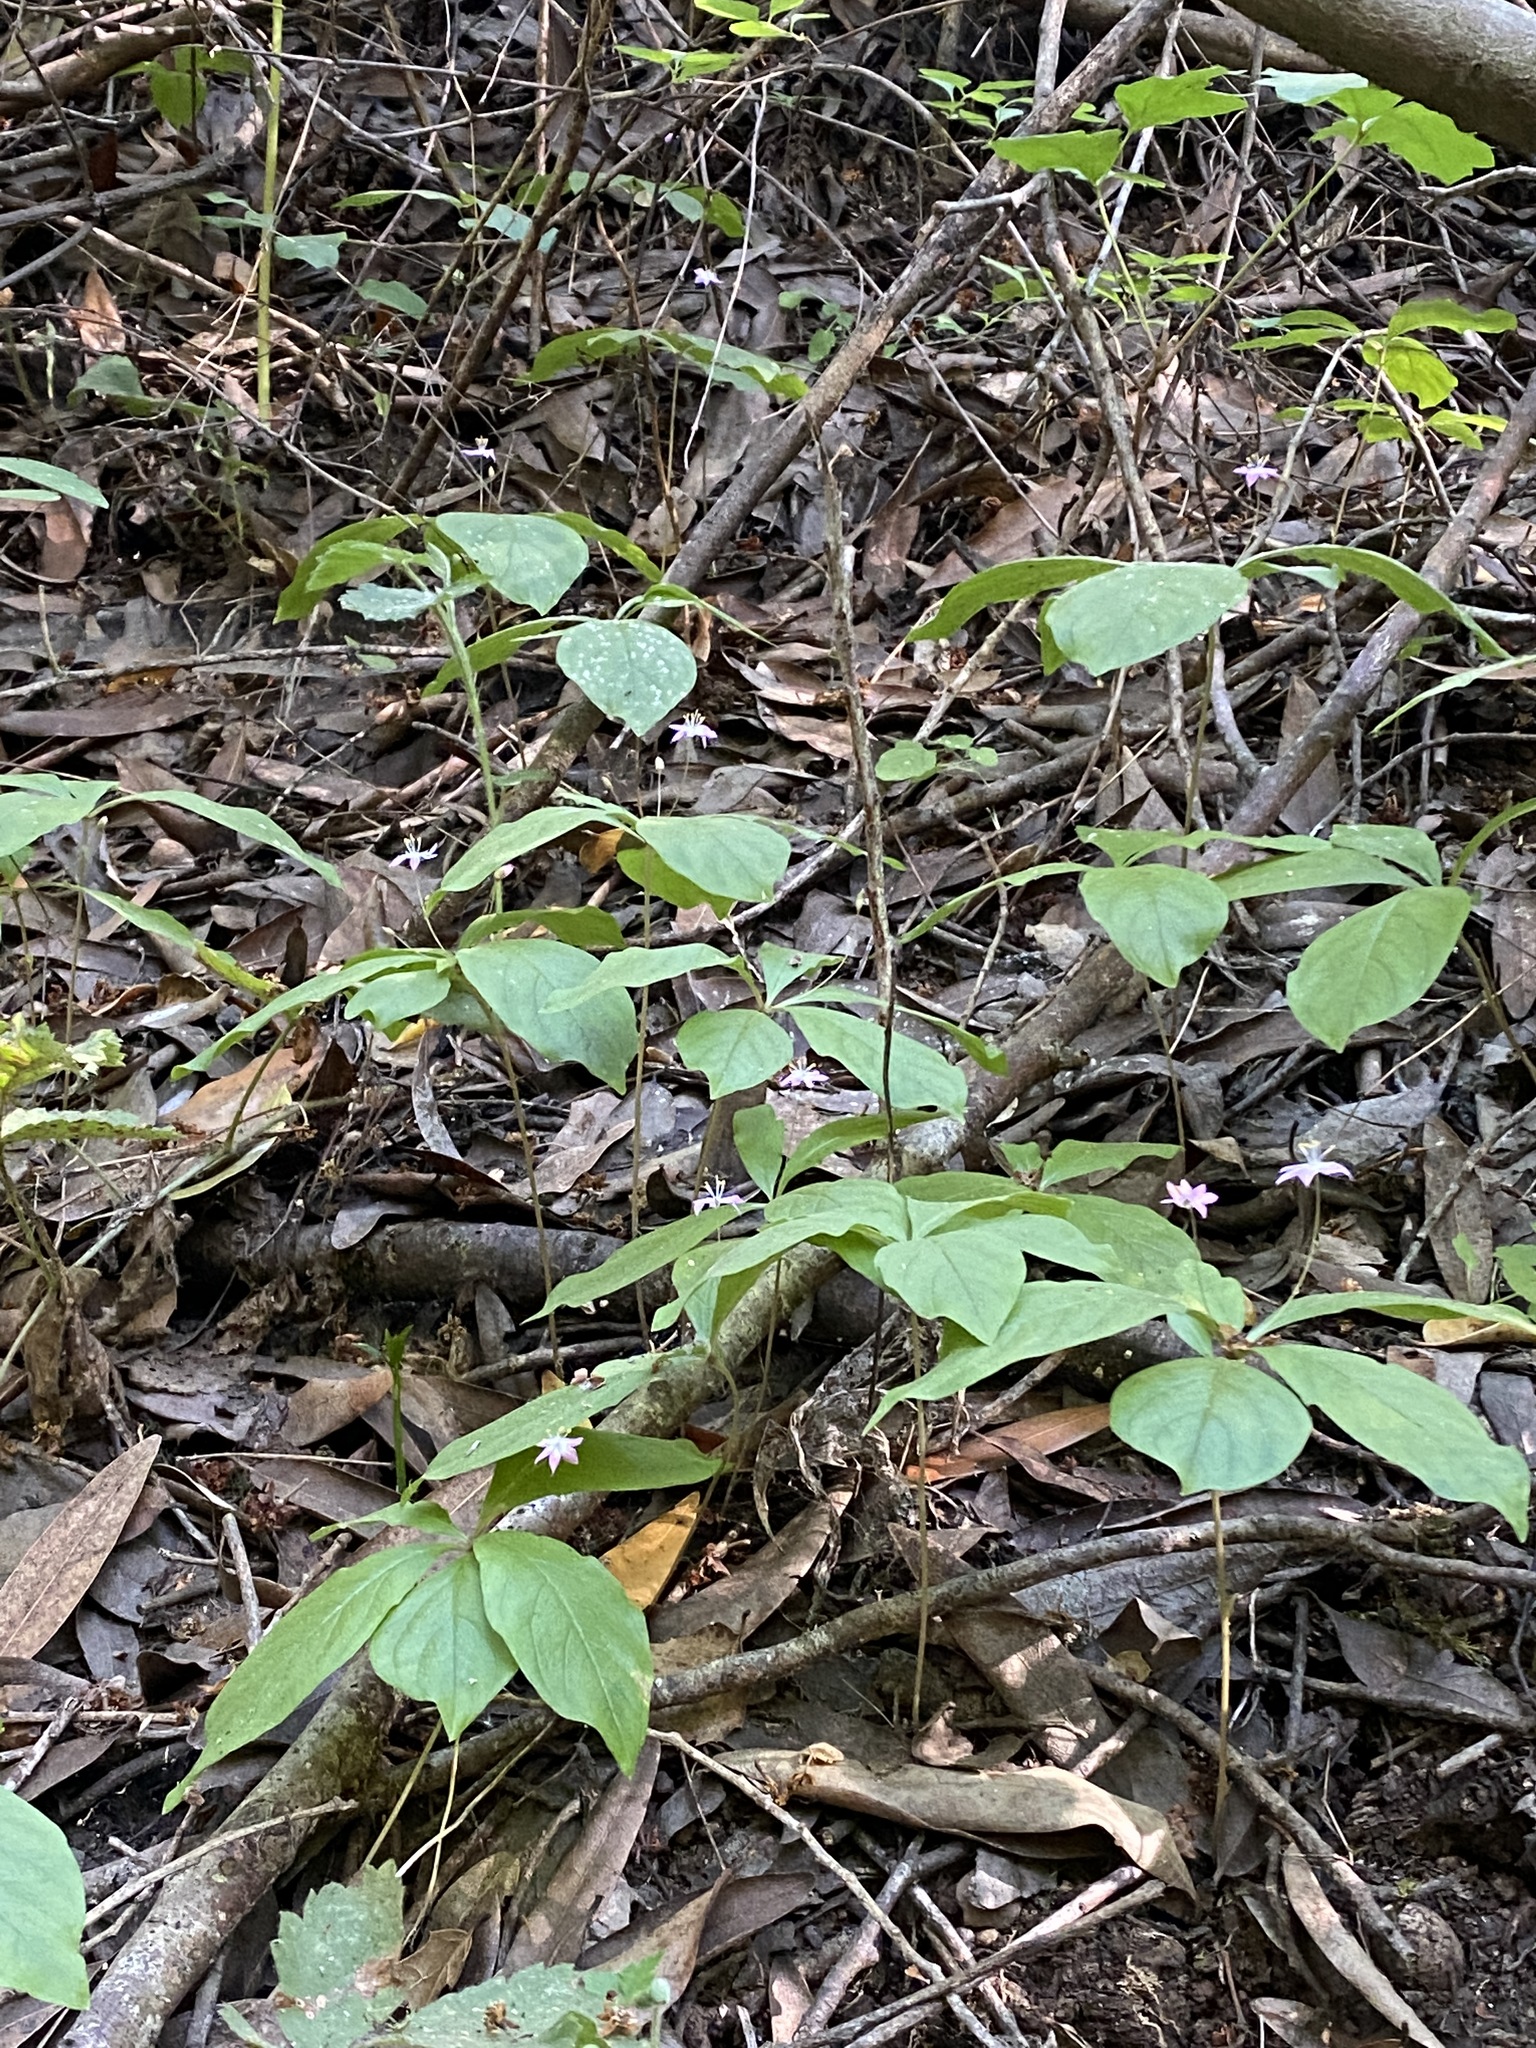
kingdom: Plantae
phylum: Tracheophyta
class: Magnoliopsida
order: Ericales
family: Primulaceae
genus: Lysimachia
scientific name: Lysimachia latifolia
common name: Pacific starflower
